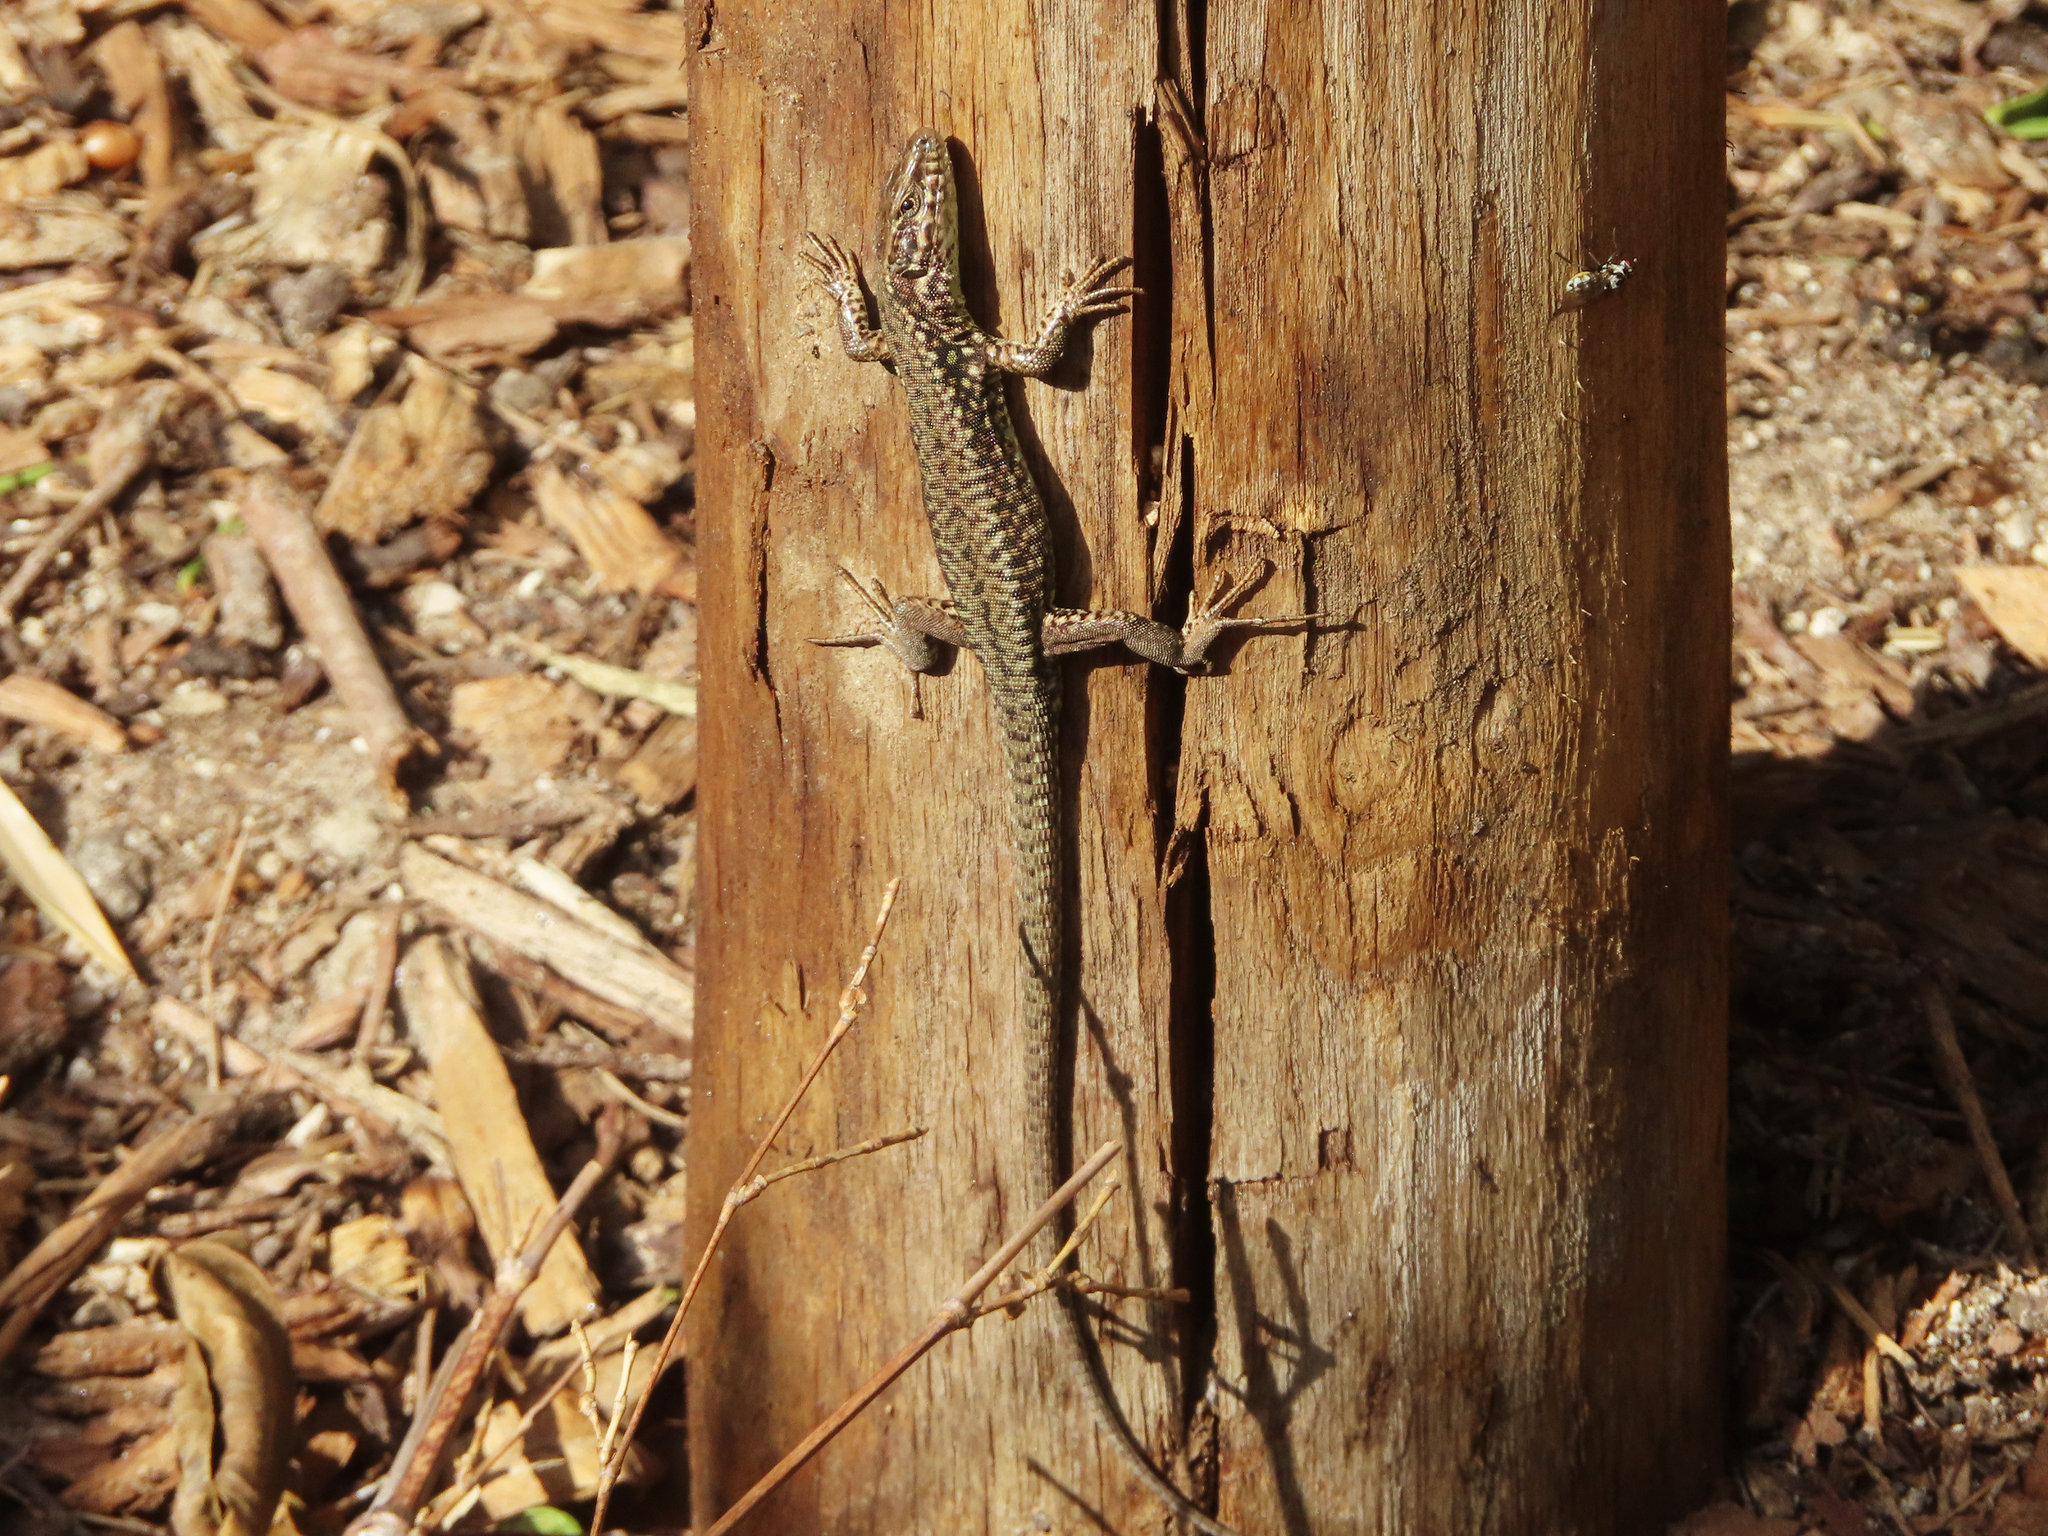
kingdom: Animalia
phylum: Chordata
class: Squamata
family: Lacertidae
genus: Podarcis
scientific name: Podarcis muralis
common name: Common wall lizard
